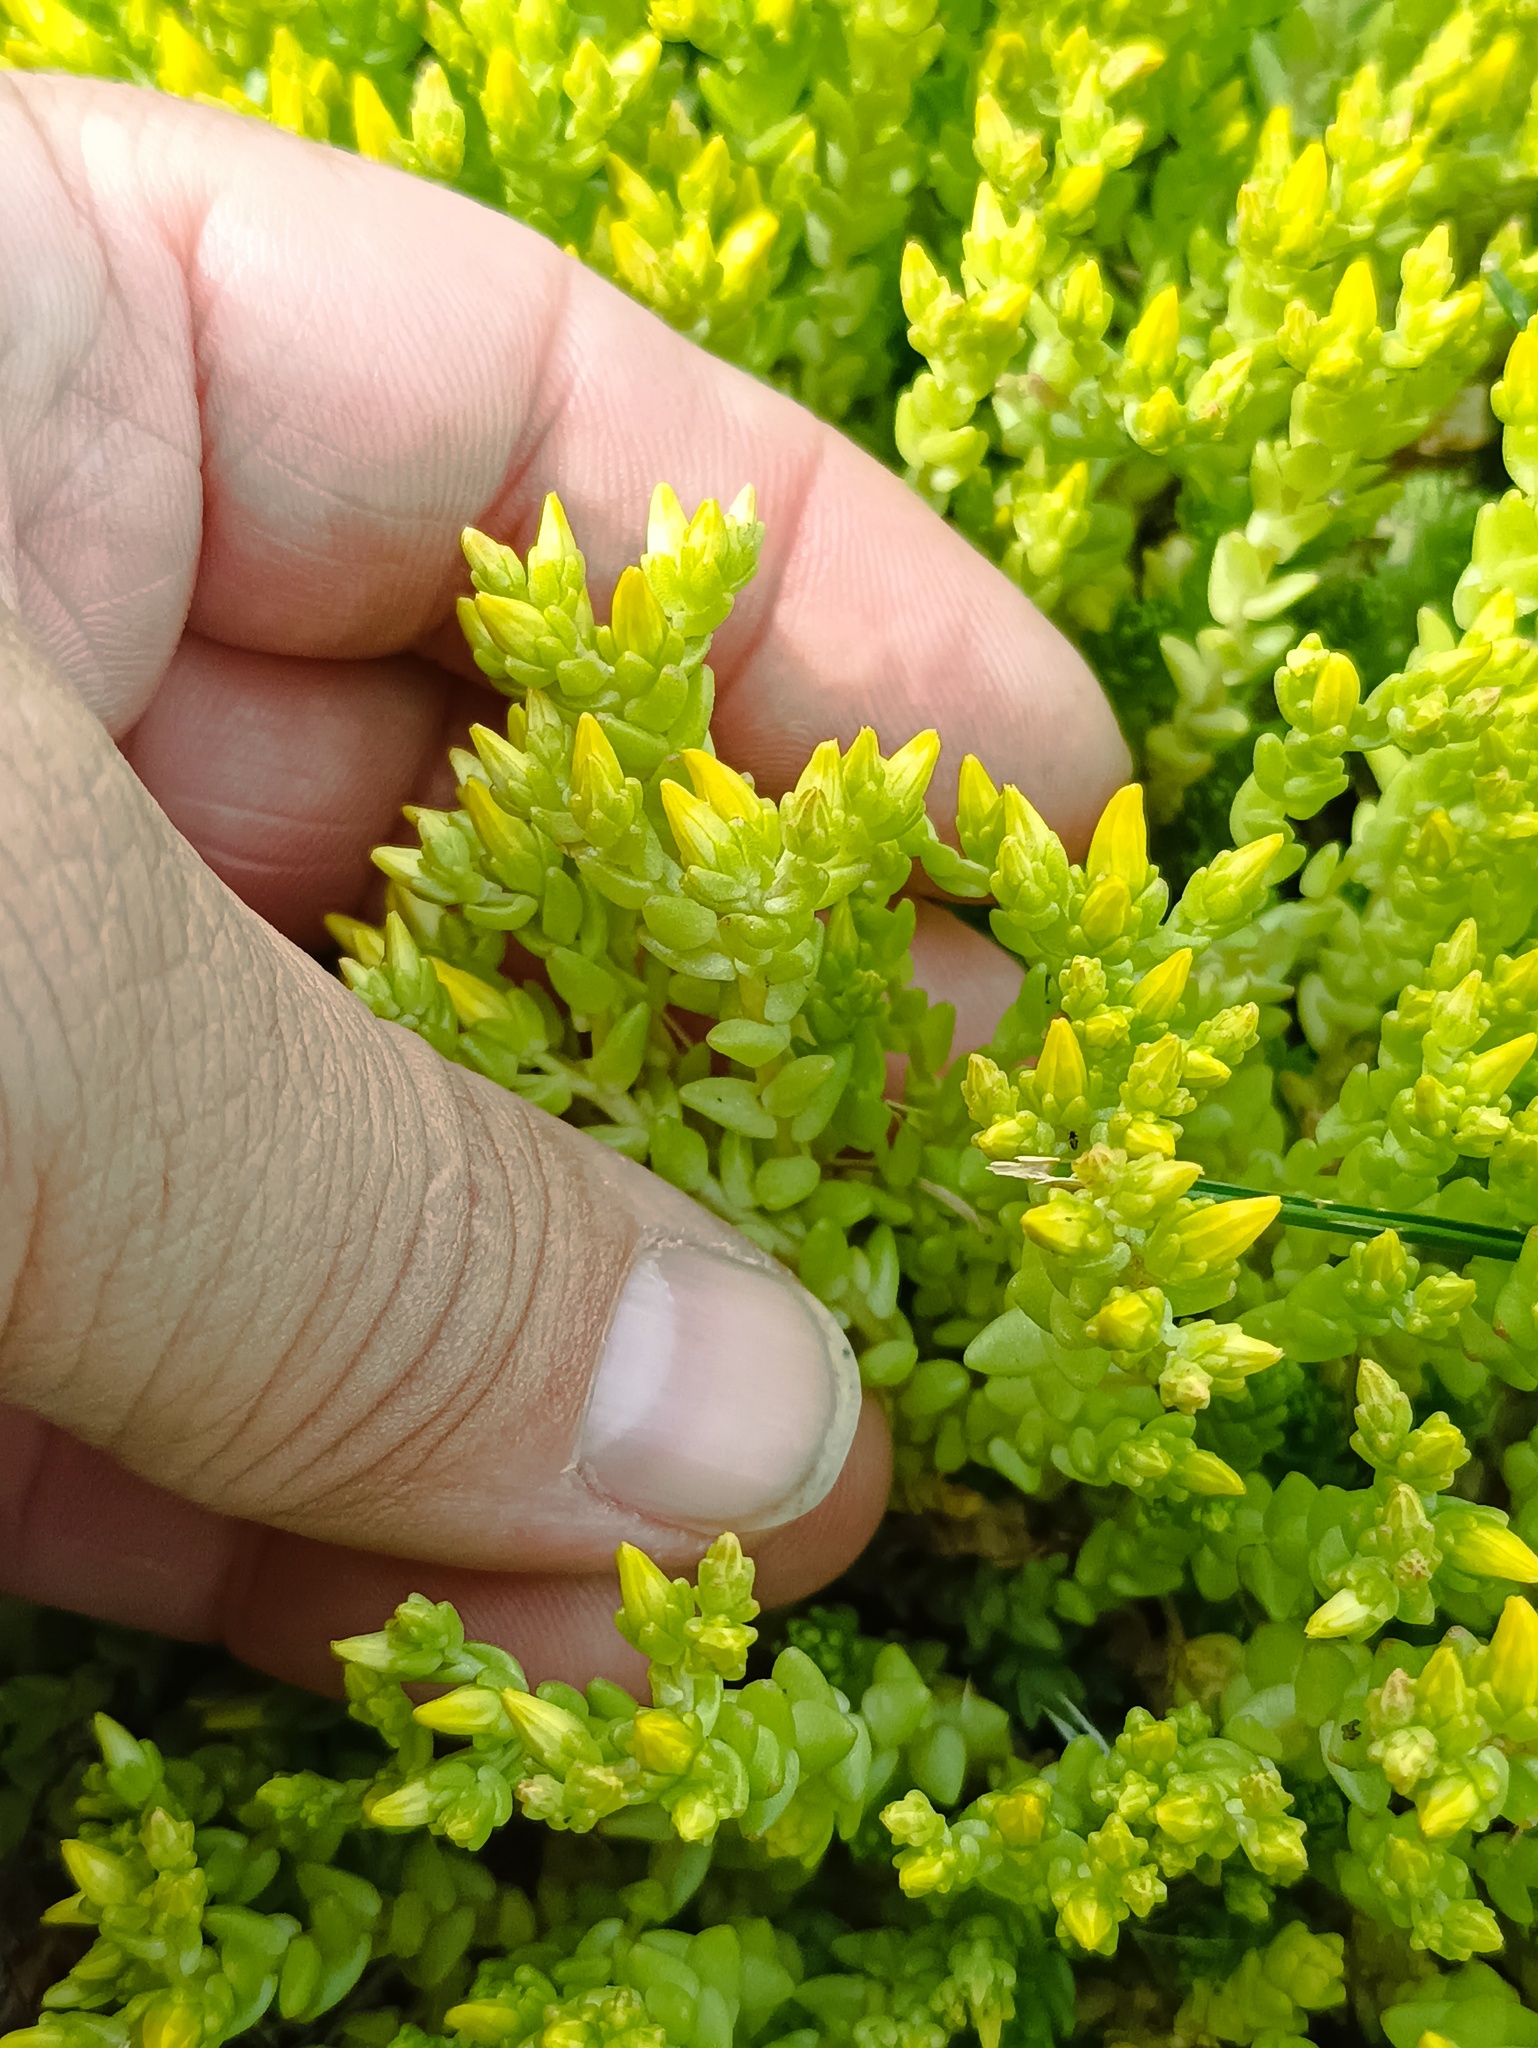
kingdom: Plantae
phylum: Tracheophyta
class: Magnoliopsida
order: Saxifragales
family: Crassulaceae
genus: Sedum
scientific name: Sedum acre
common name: Biting stonecrop
